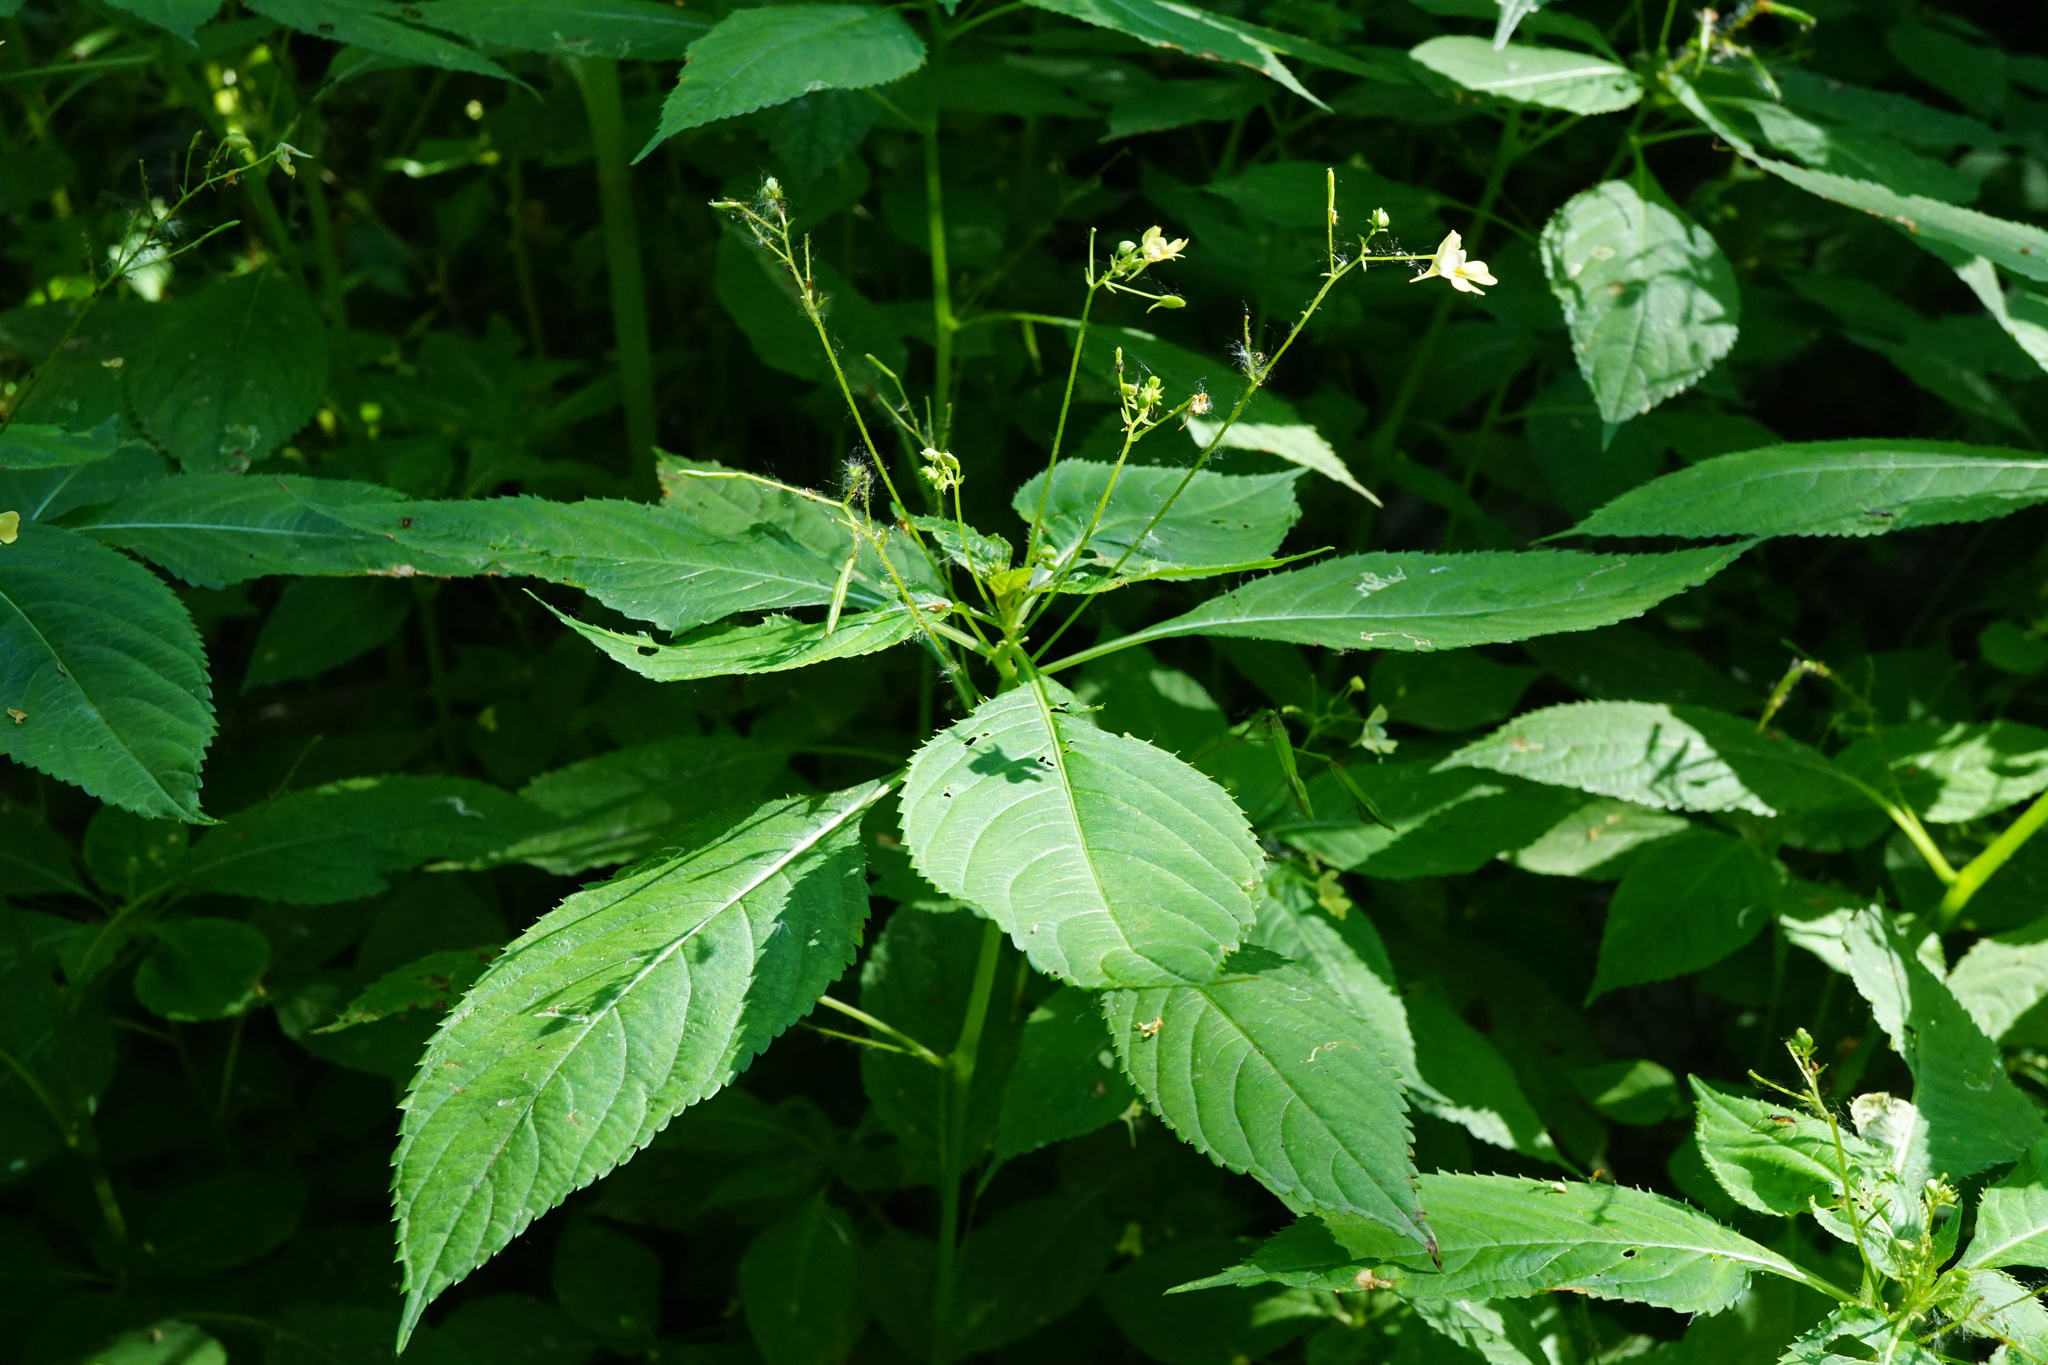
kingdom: Plantae
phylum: Tracheophyta
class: Magnoliopsida
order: Ericales
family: Balsaminaceae
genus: Impatiens
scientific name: Impatiens parviflora
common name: Small balsam
